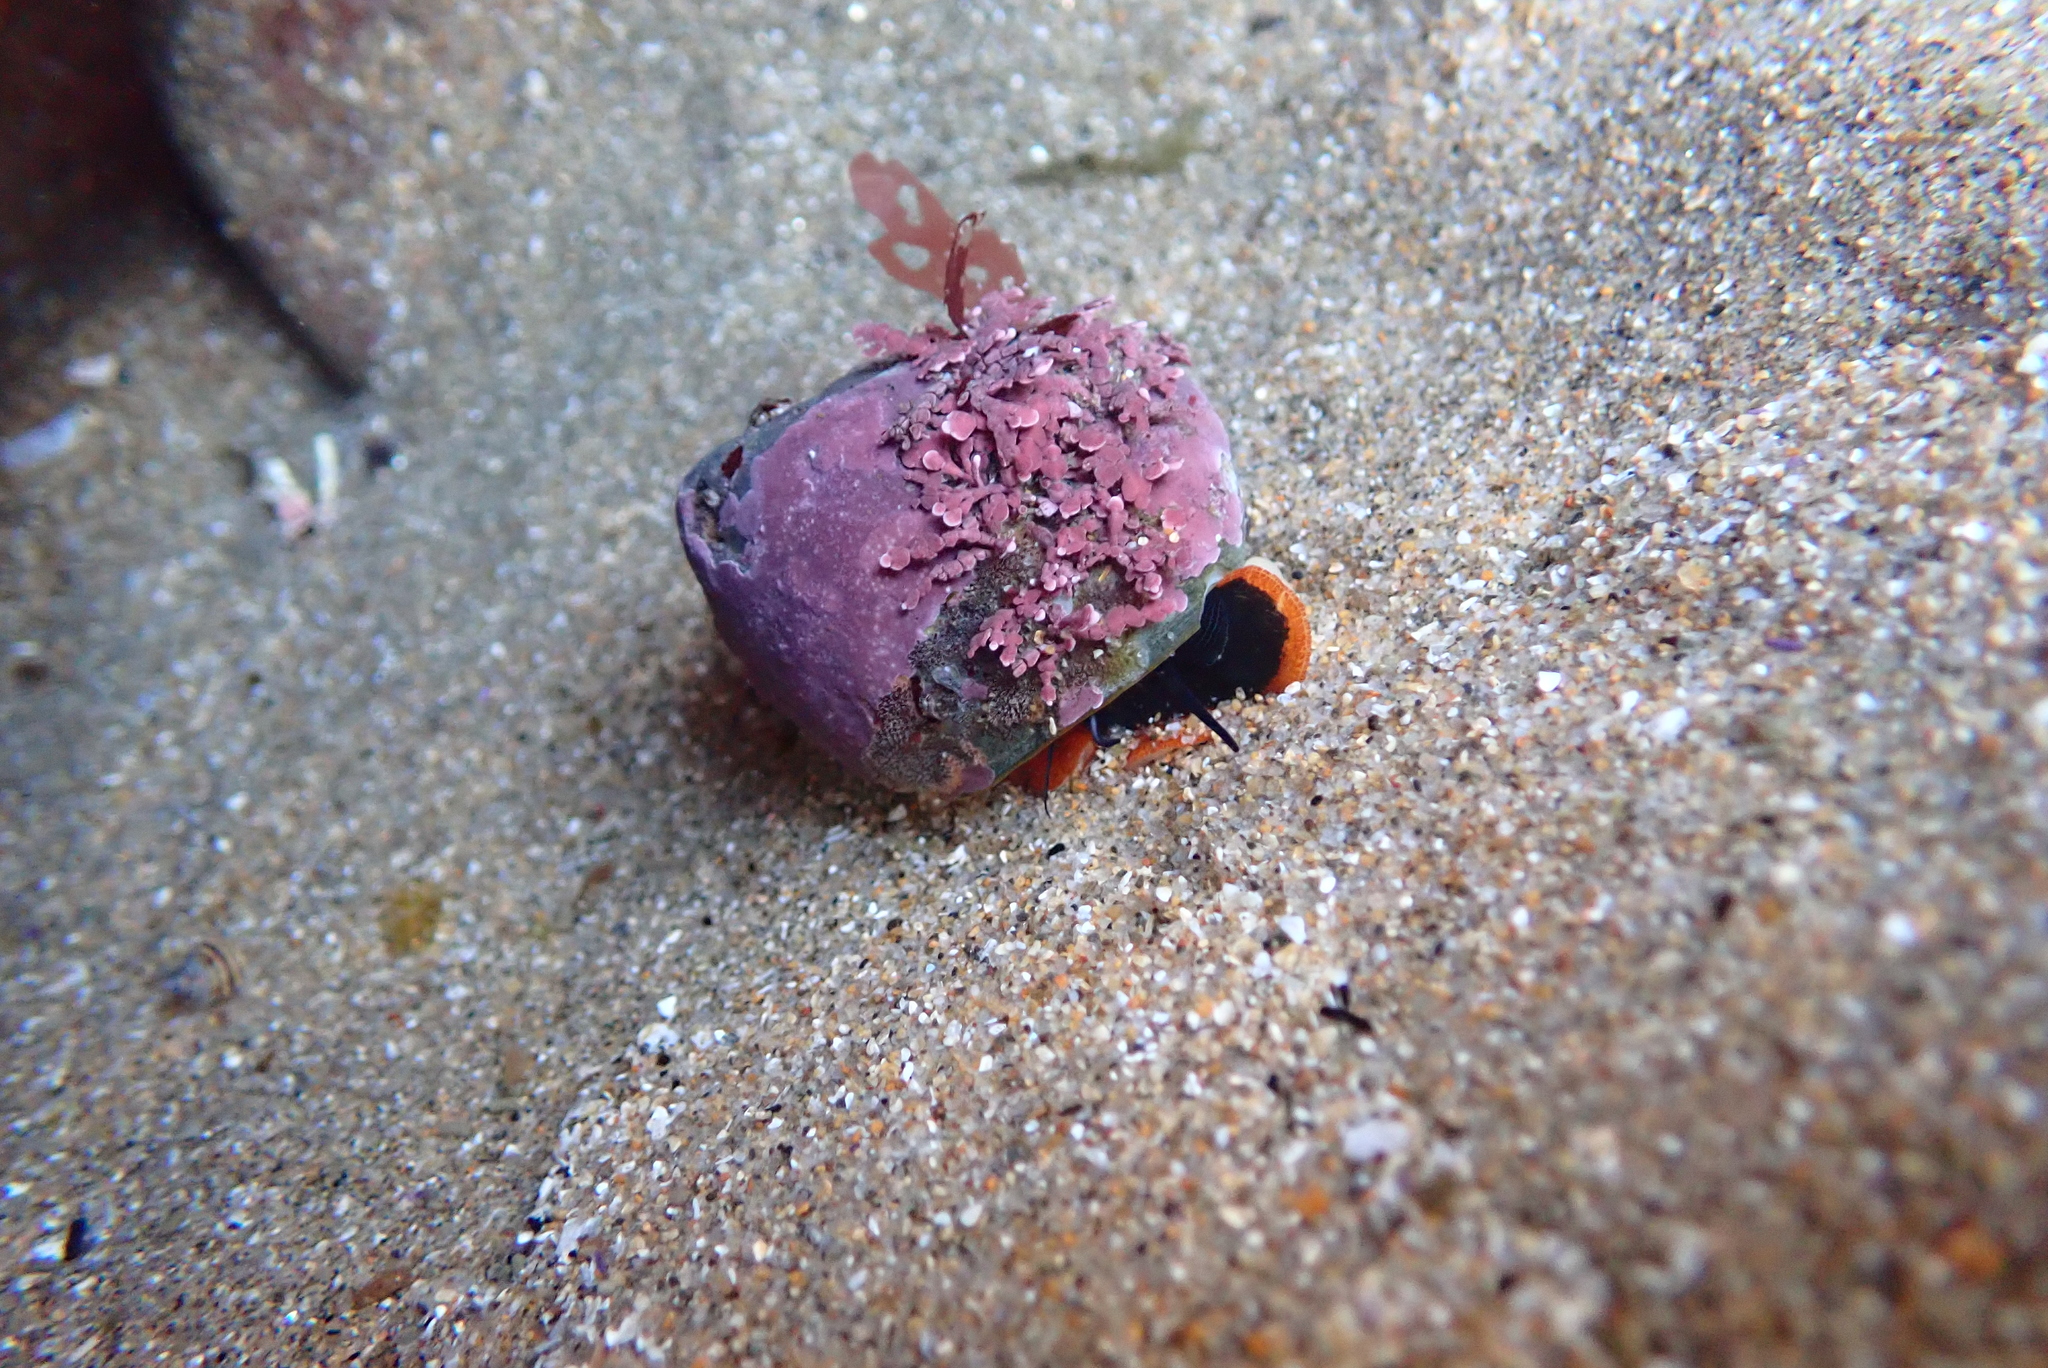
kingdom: Animalia
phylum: Mollusca
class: Gastropoda
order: Trochida
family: Tegulidae
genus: Tegula
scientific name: Tegula brunnea
